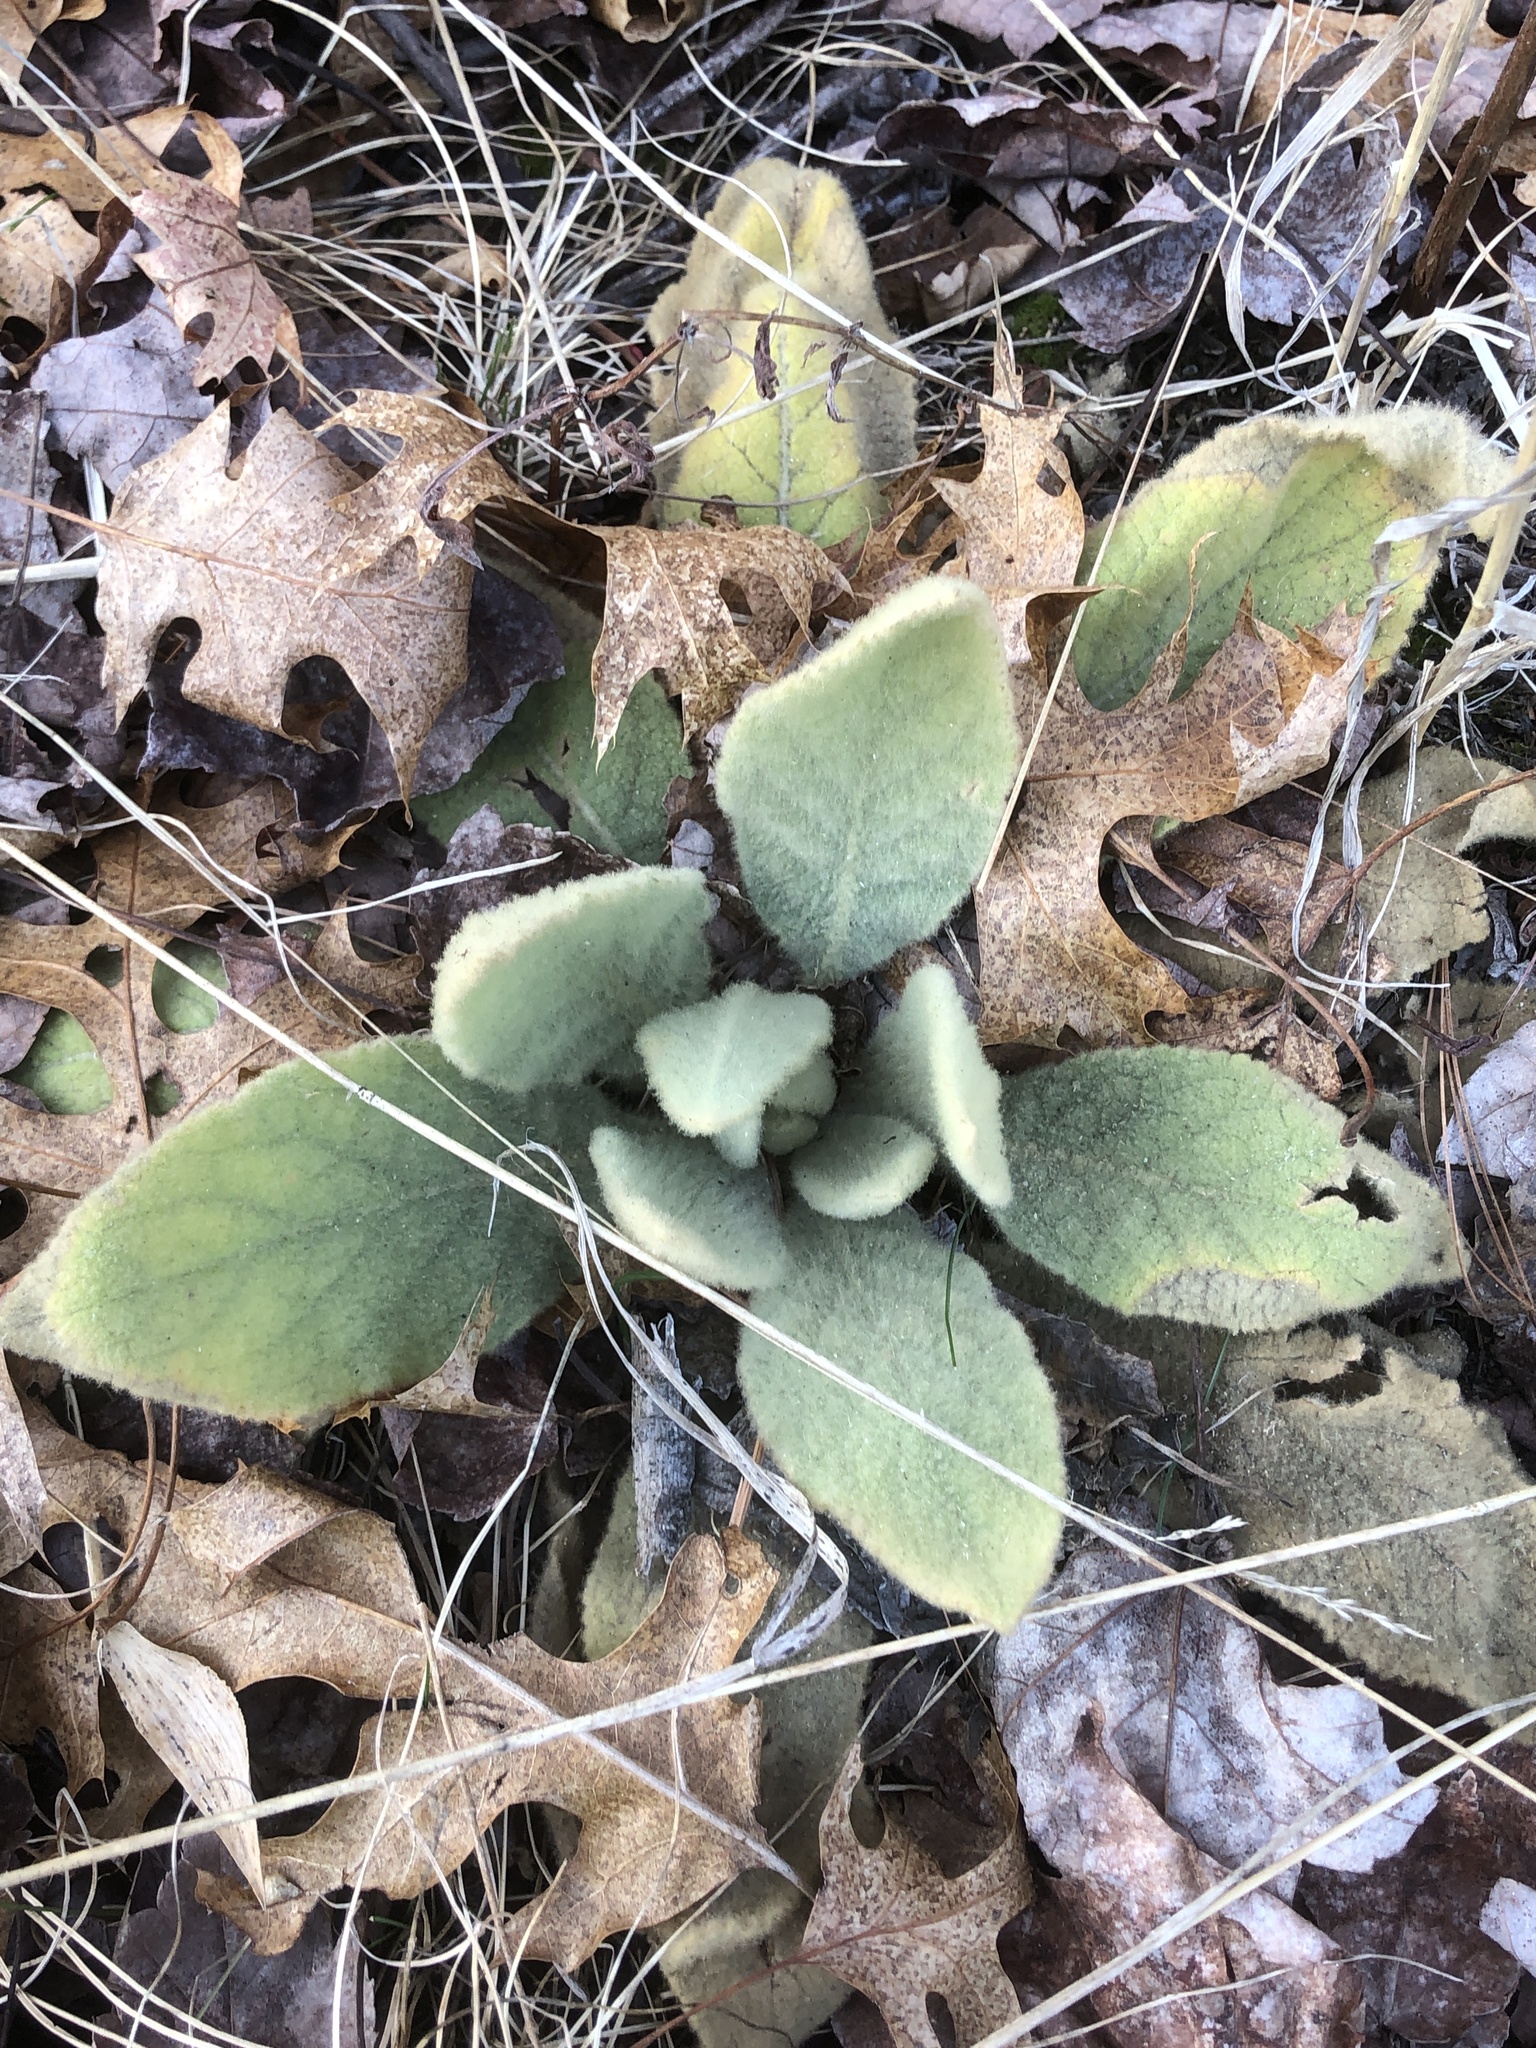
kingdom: Plantae
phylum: Tracheophyta
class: Magnoliopsida
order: Lamiales
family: Scrophulariaceae
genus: Verbascum
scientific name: Verbascum thapsus
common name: Common mullein
